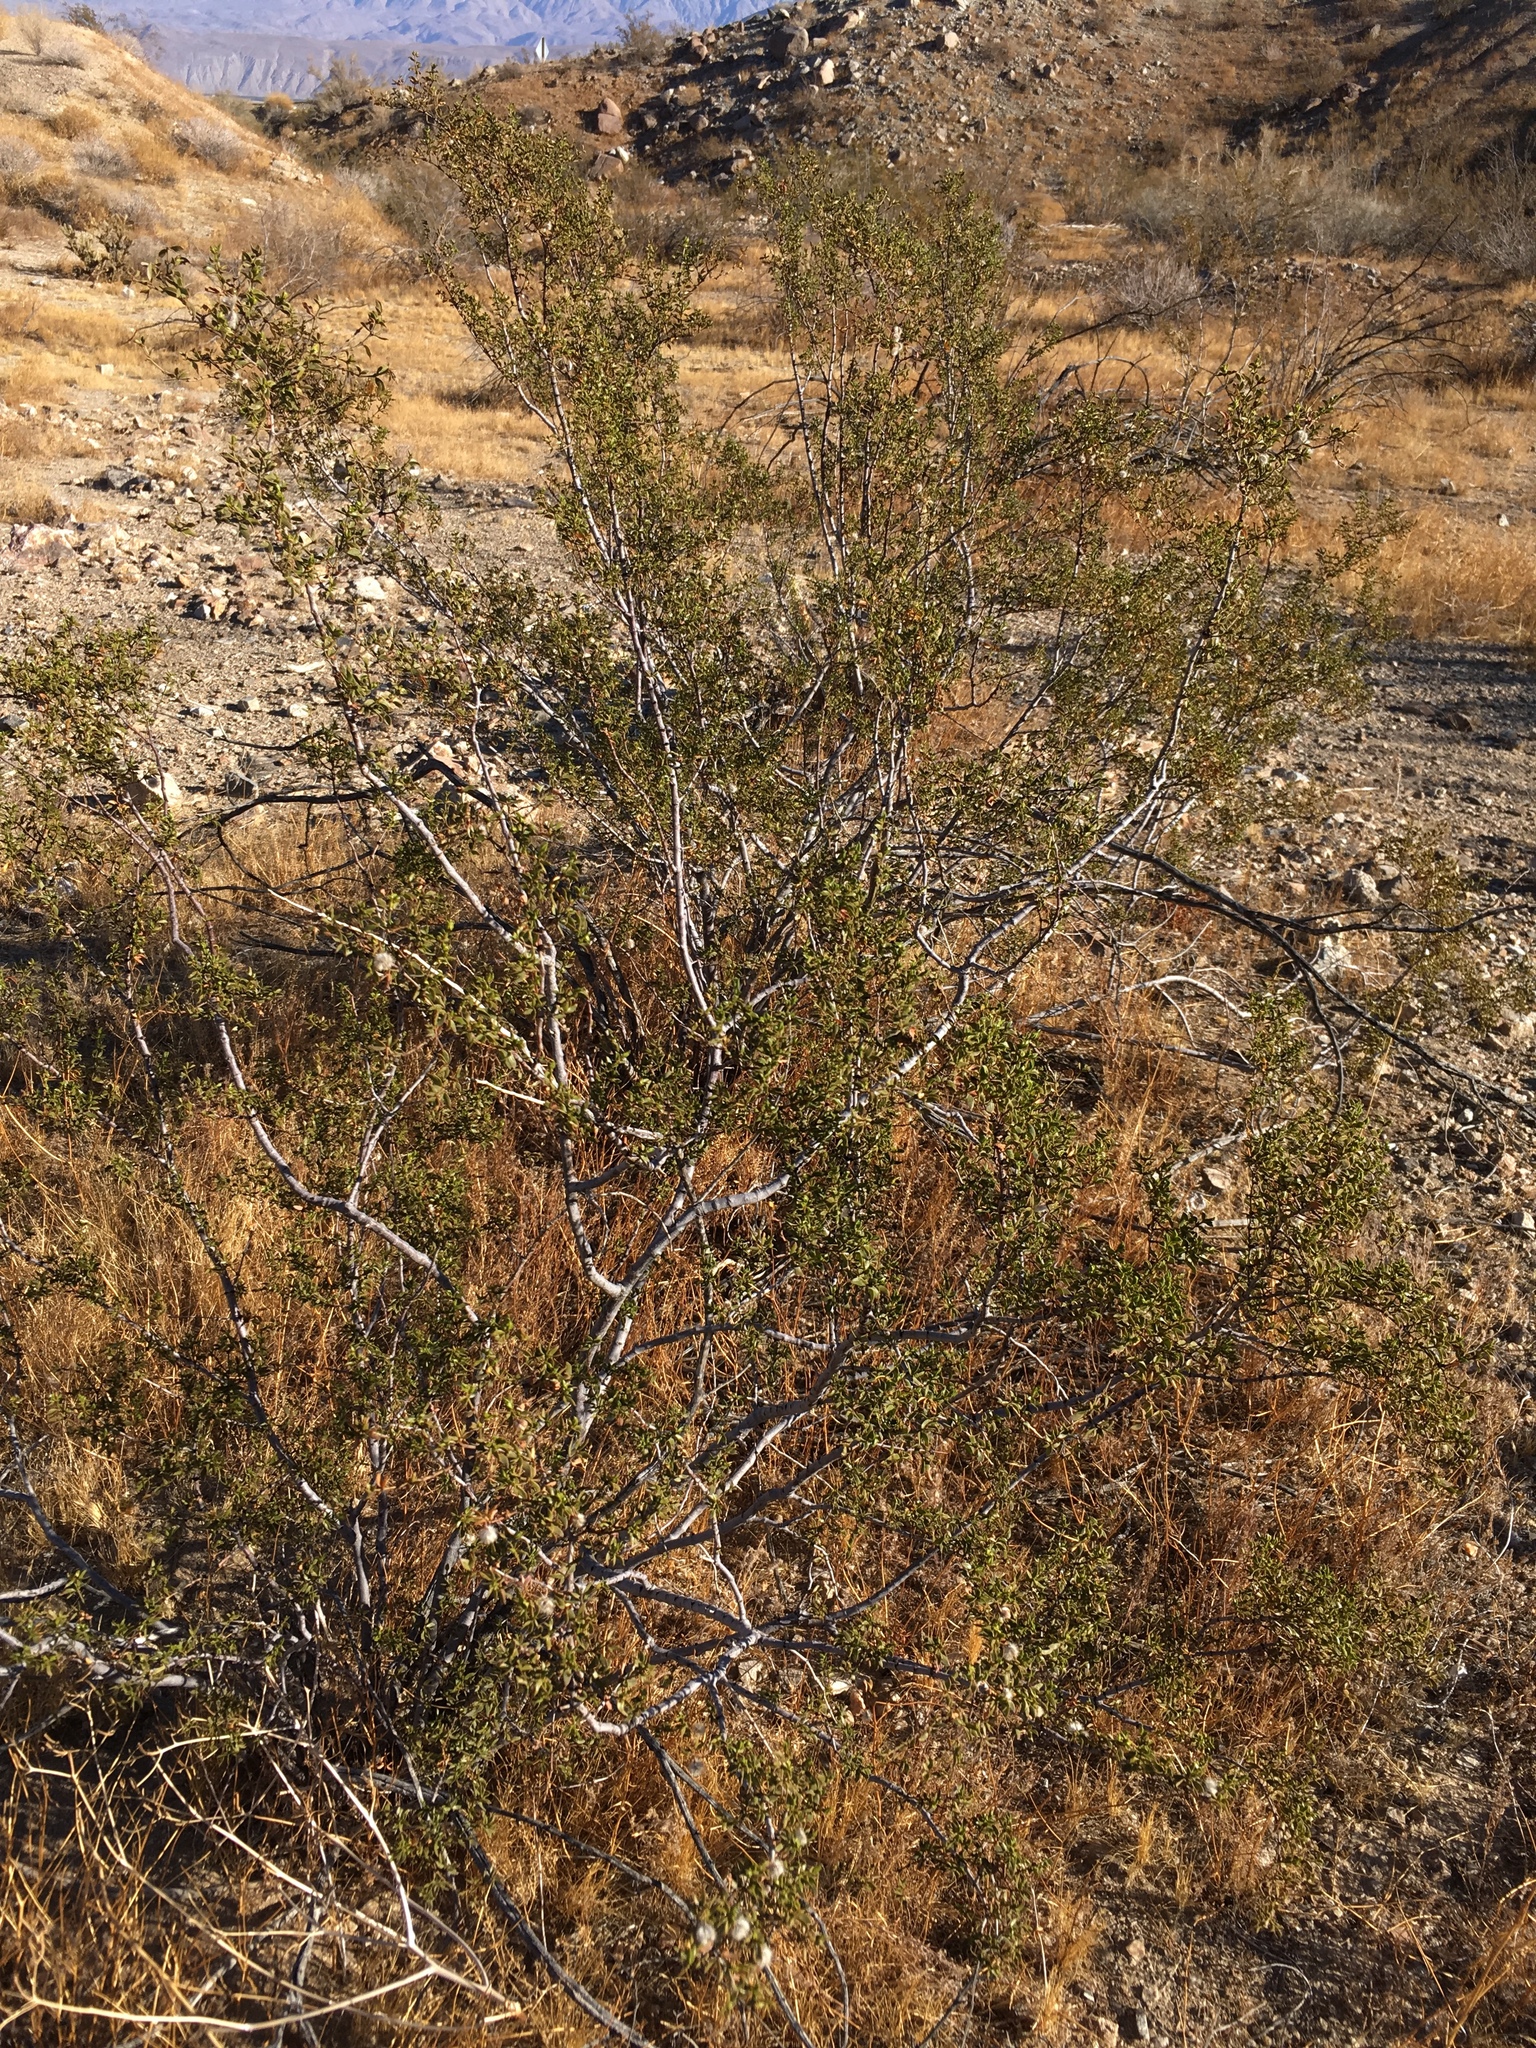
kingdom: Plantae
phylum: Tracheophyta
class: Magnoliopsida
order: Zygophyllales
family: Zygophyllaceae
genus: Larrea
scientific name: Larrea tridentata
